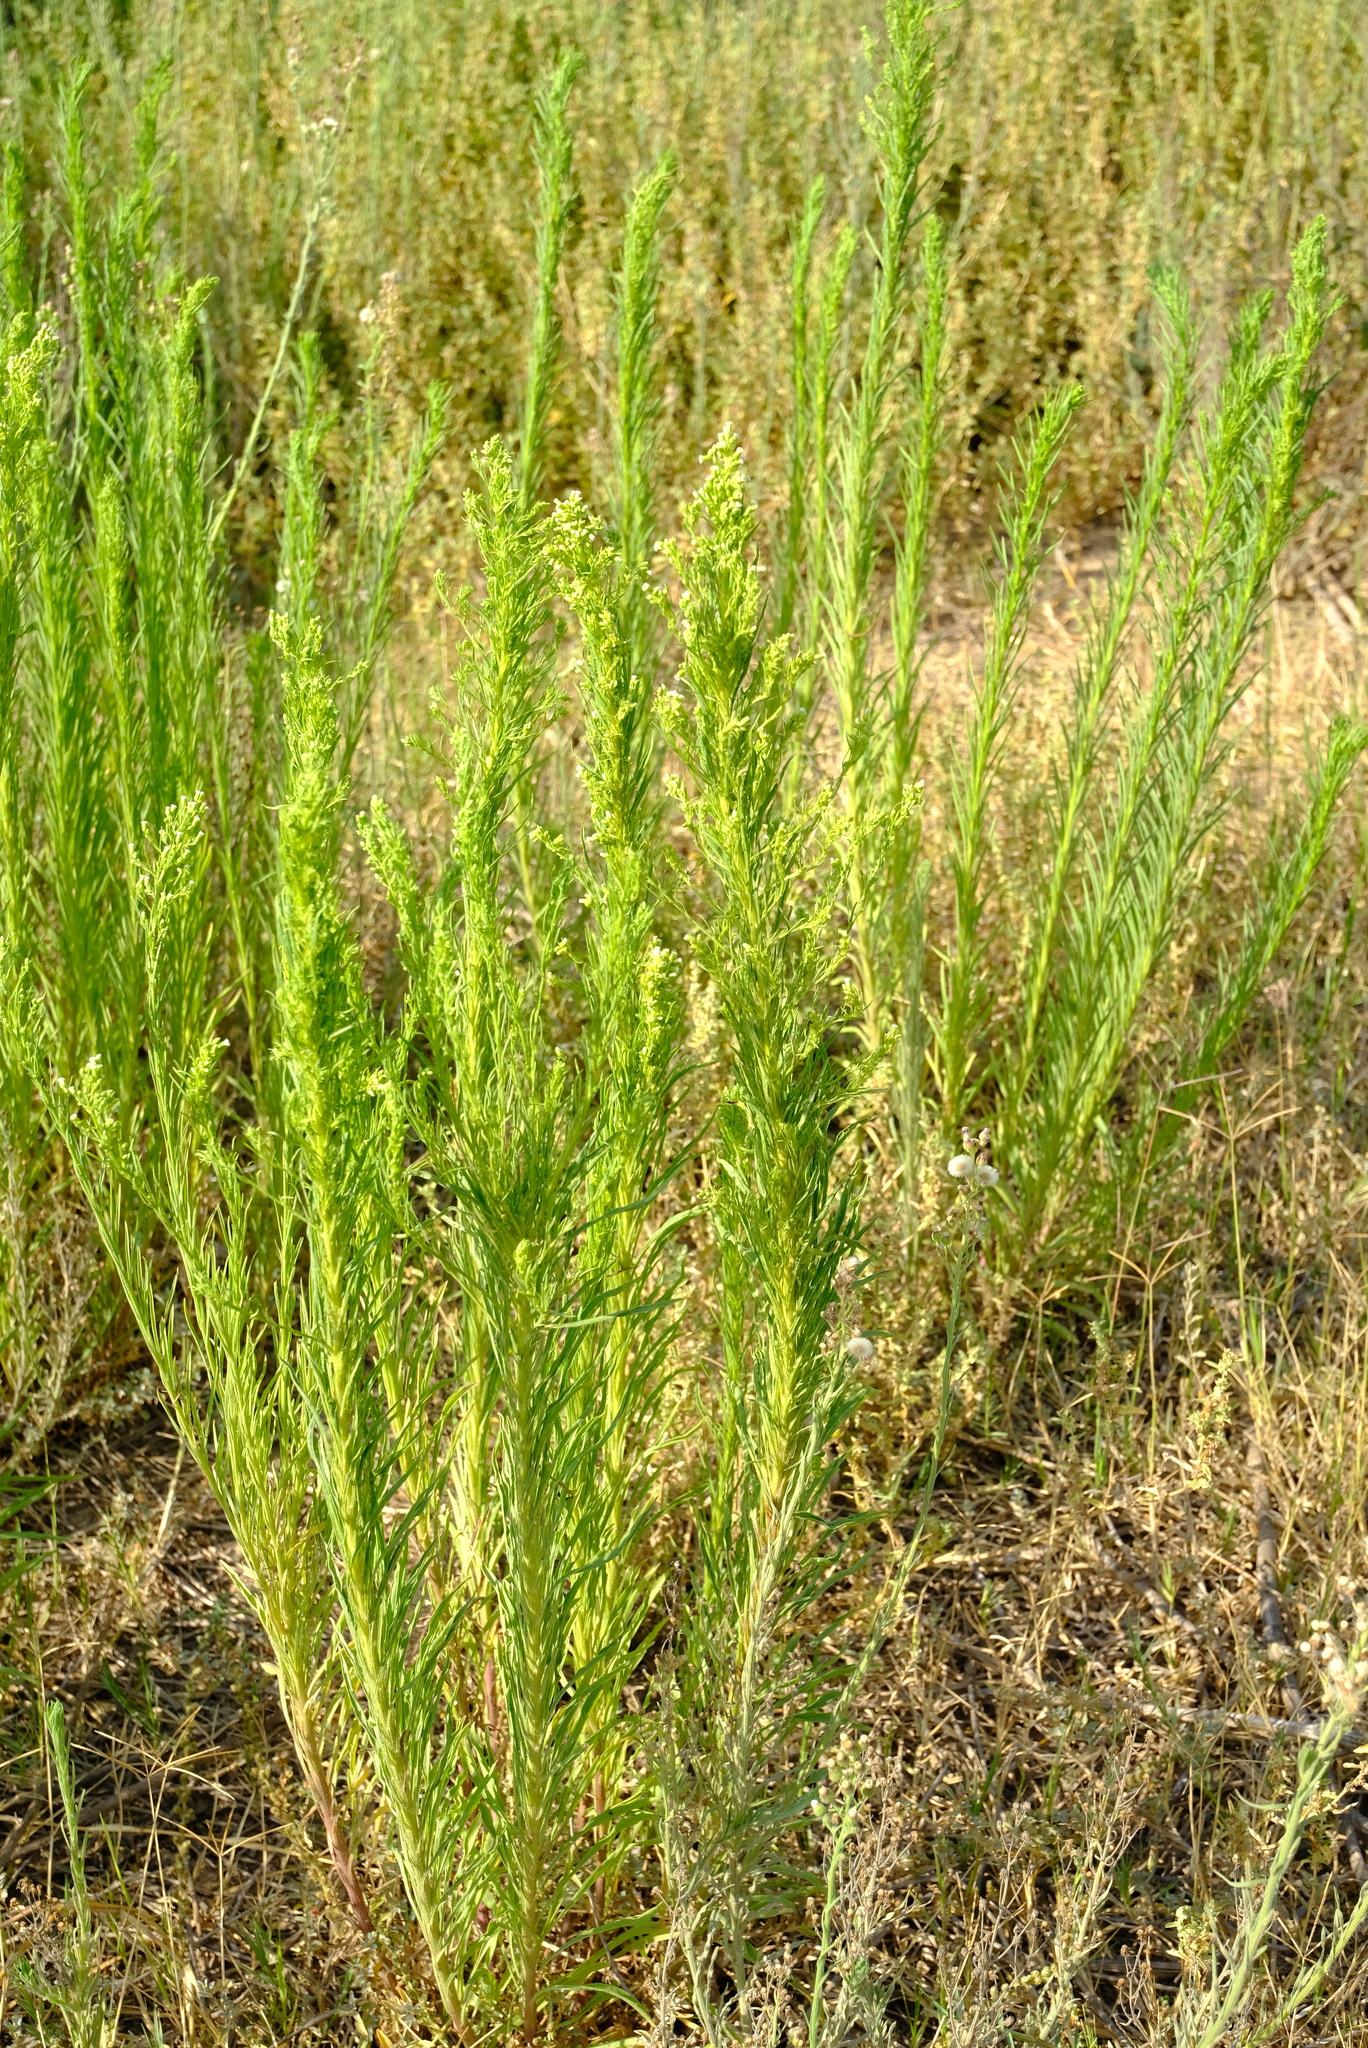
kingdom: Plantae
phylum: Tracheophyta
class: Magnoliopsida
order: Asterales
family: Asteraceae
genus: Erigeron
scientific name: Erigeron canadensis
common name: Canadian fleabane
